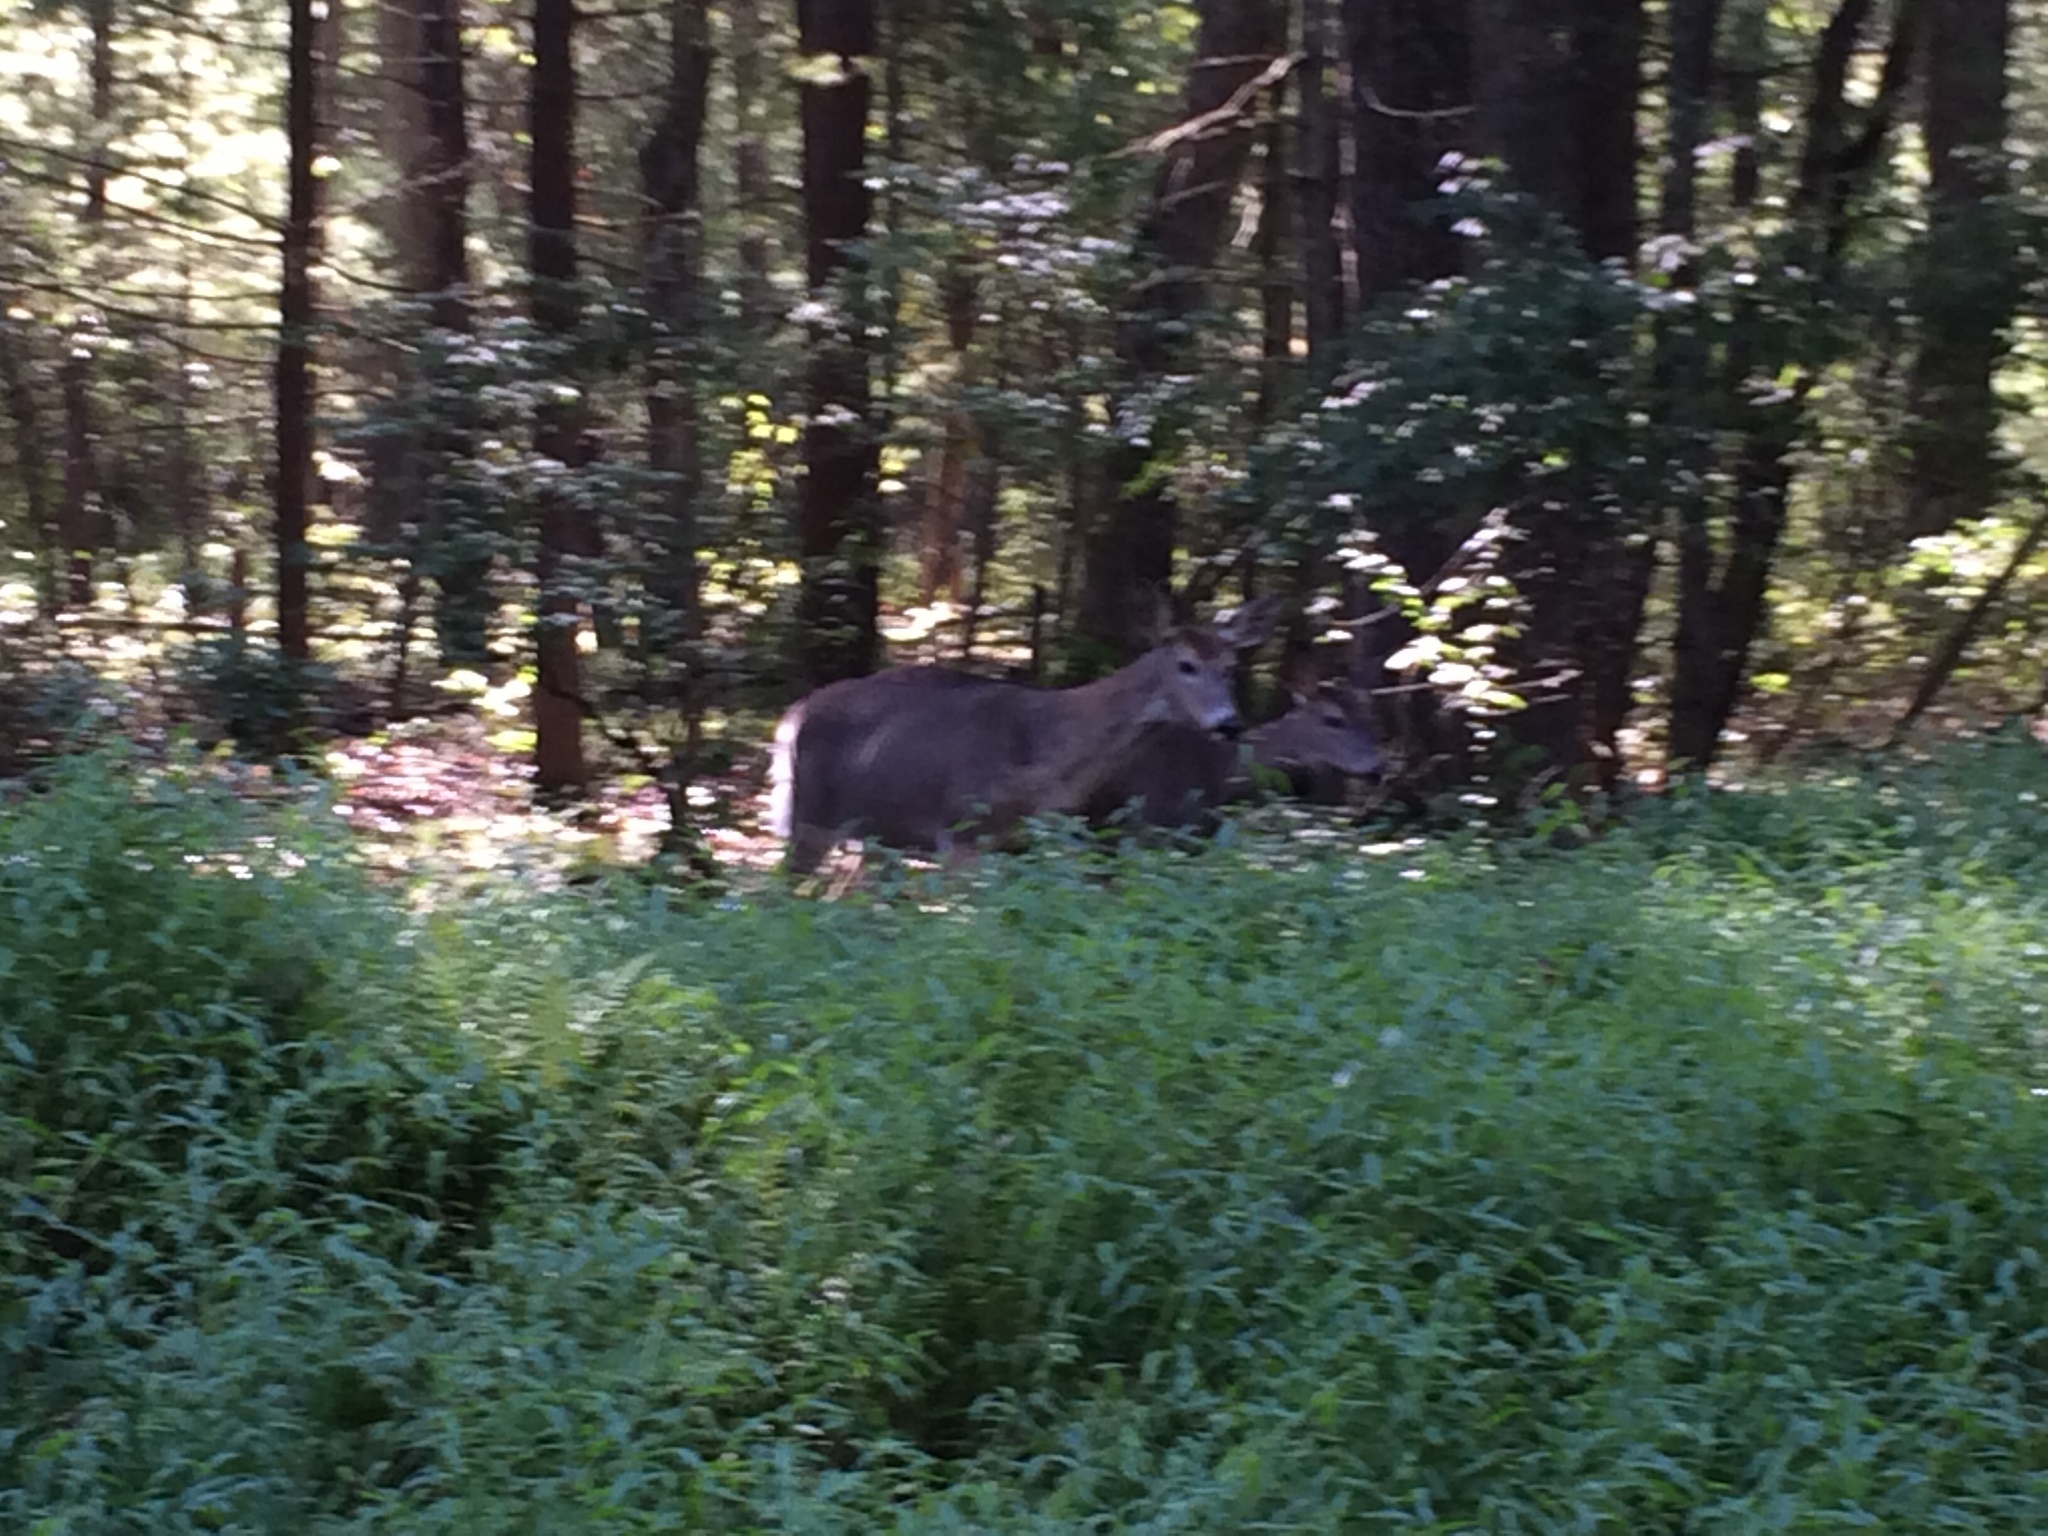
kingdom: Animalia
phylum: Chordata
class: Mammalia
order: Artiodactyla
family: Cervidae
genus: Odocoileus
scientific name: Odocoileus virginianus
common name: White-tailed deer
